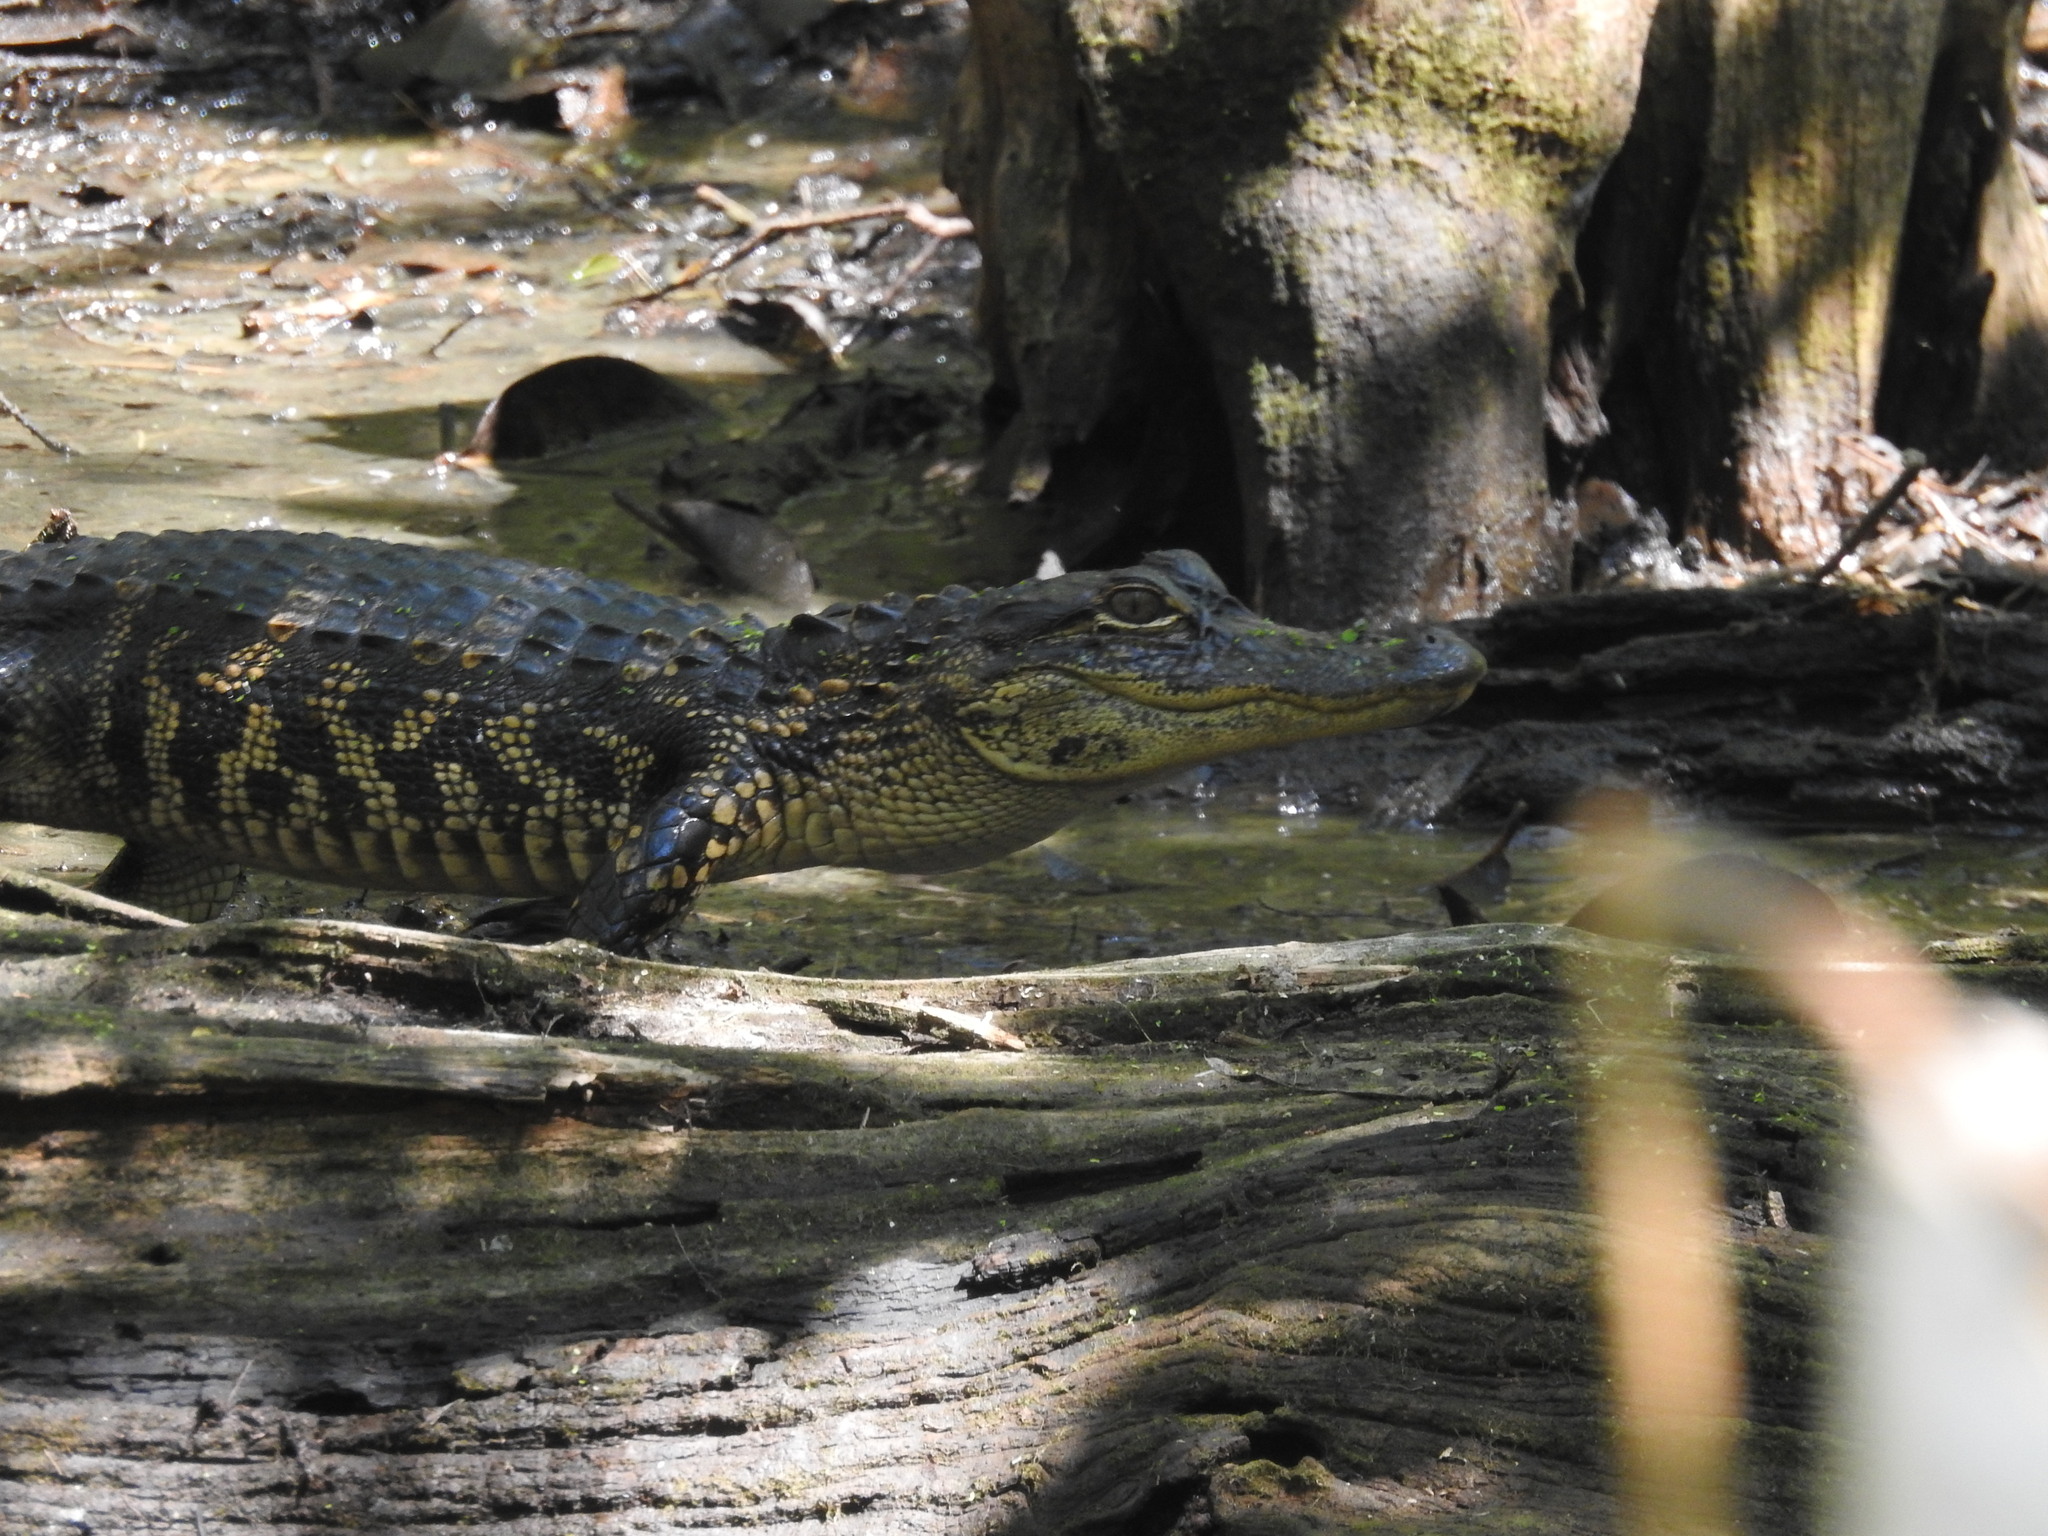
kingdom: Animalia
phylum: Chordata
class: Crocodylia
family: Alligatoridae
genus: Alligator
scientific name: Alligator mississippiensis
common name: American alligator
